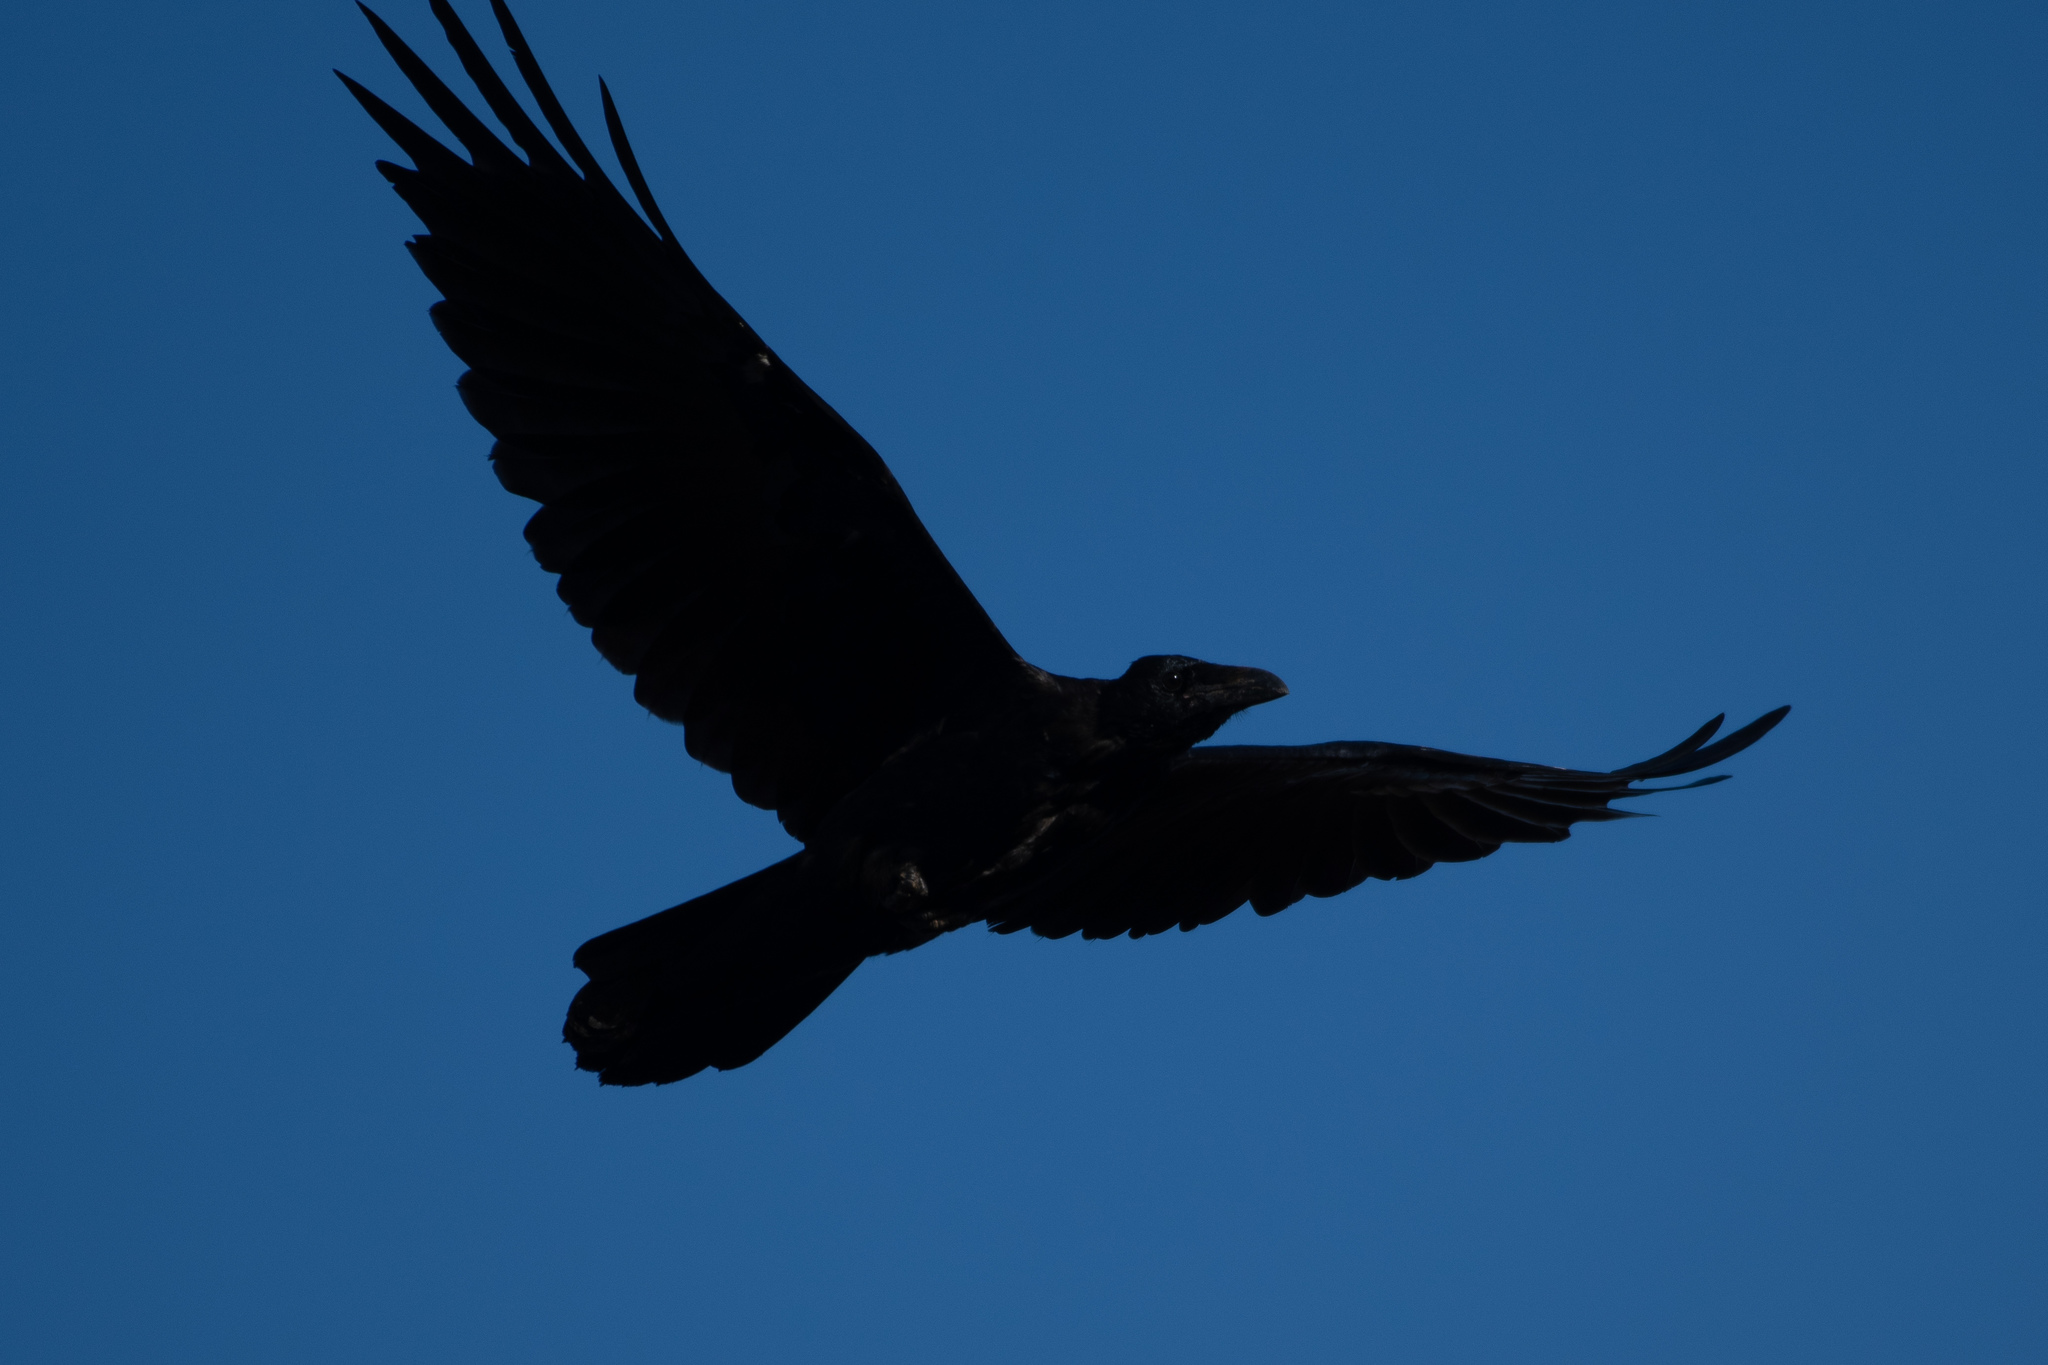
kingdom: Animalia
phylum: Chordata
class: Aves
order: Passeriformes
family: Corvidae
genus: Corvus
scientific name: Corvus corax
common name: Common raven
